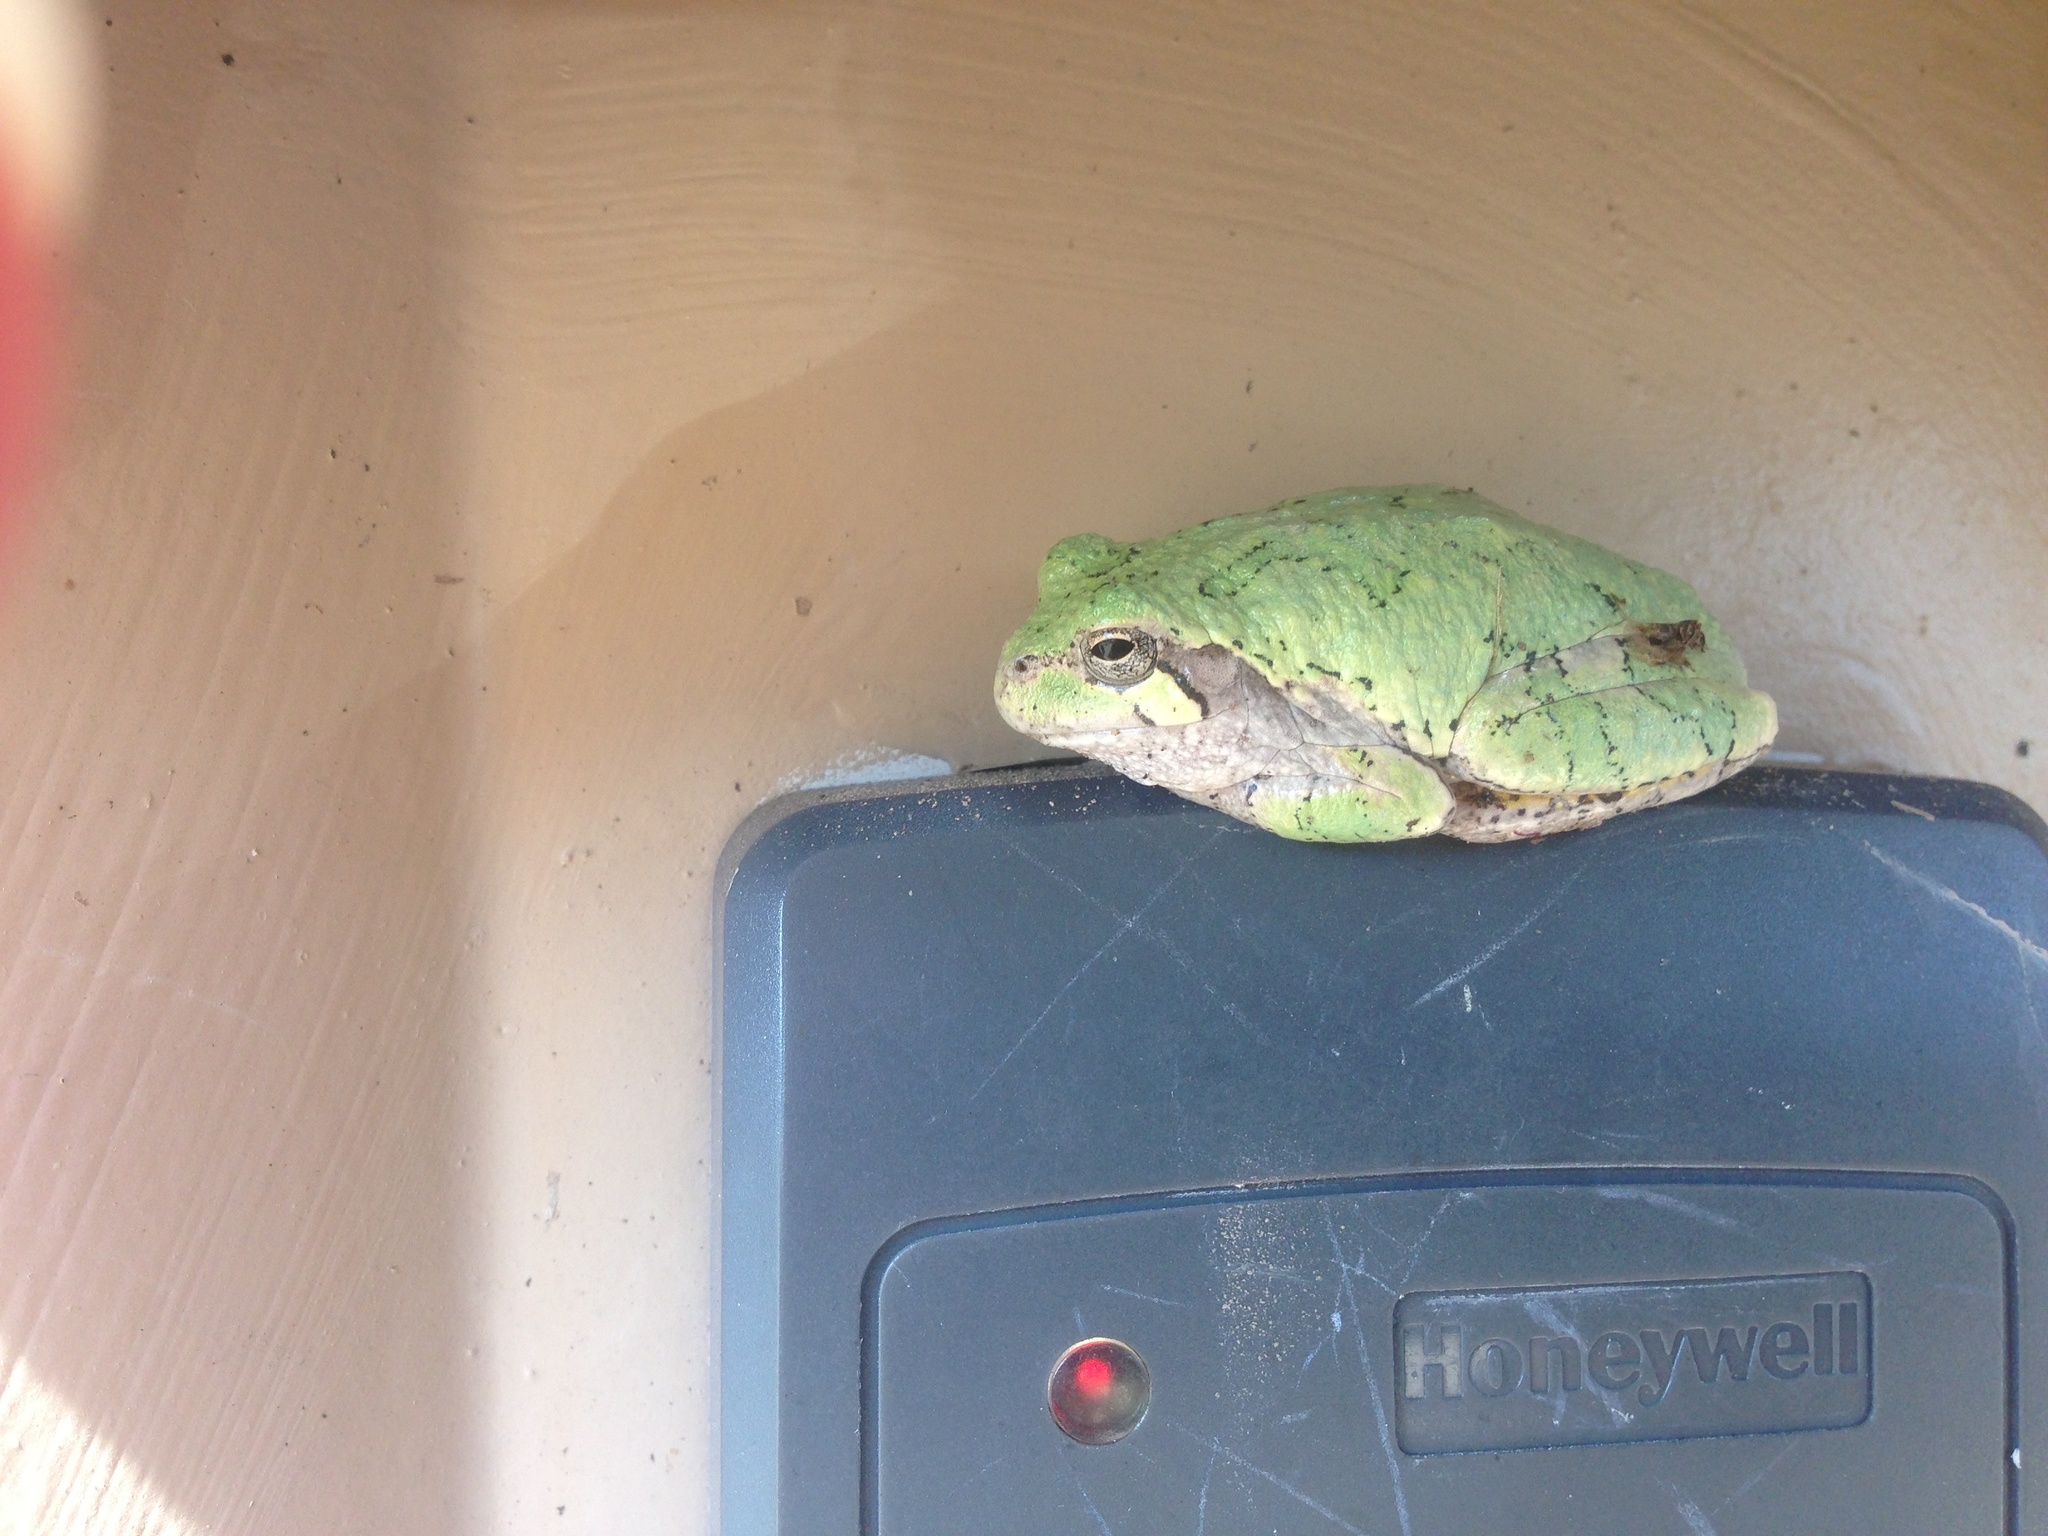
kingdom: Animalia
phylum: Chordata
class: Amphibia
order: Anura
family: Hylidae
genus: Hyla
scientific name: Hyla
